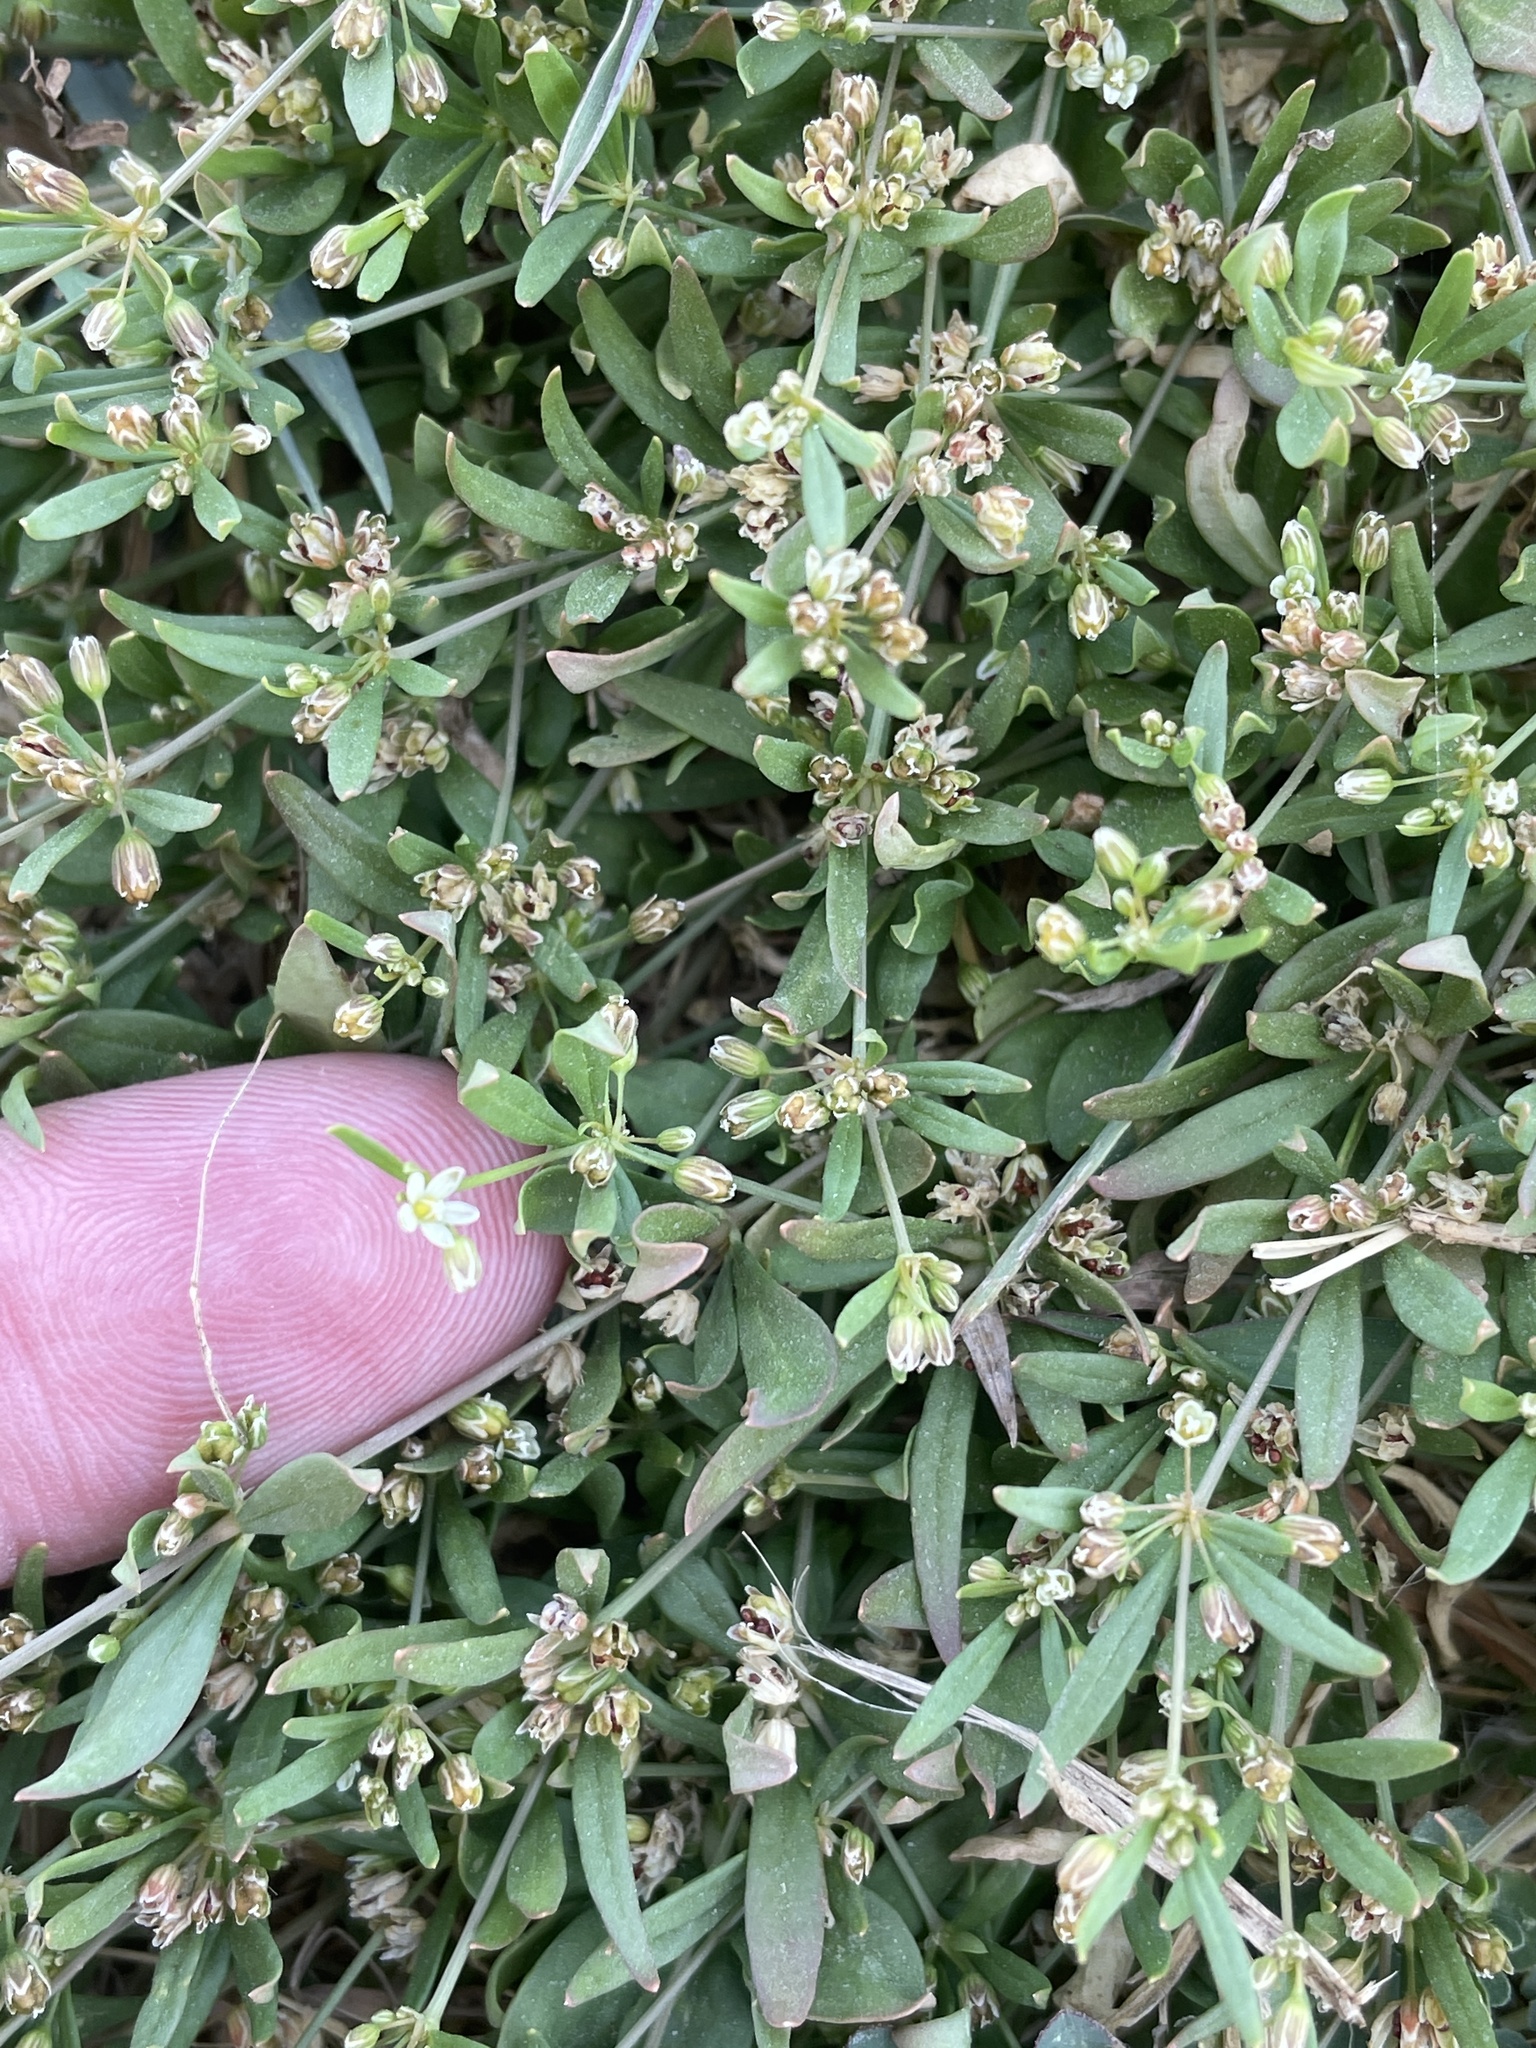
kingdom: Plantae
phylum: Tracheophyta
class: Magnoliopsida
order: Caryophyllales
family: Molluginaceae
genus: Mollugo
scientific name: Mollugo verticillata
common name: Green carpetweed
